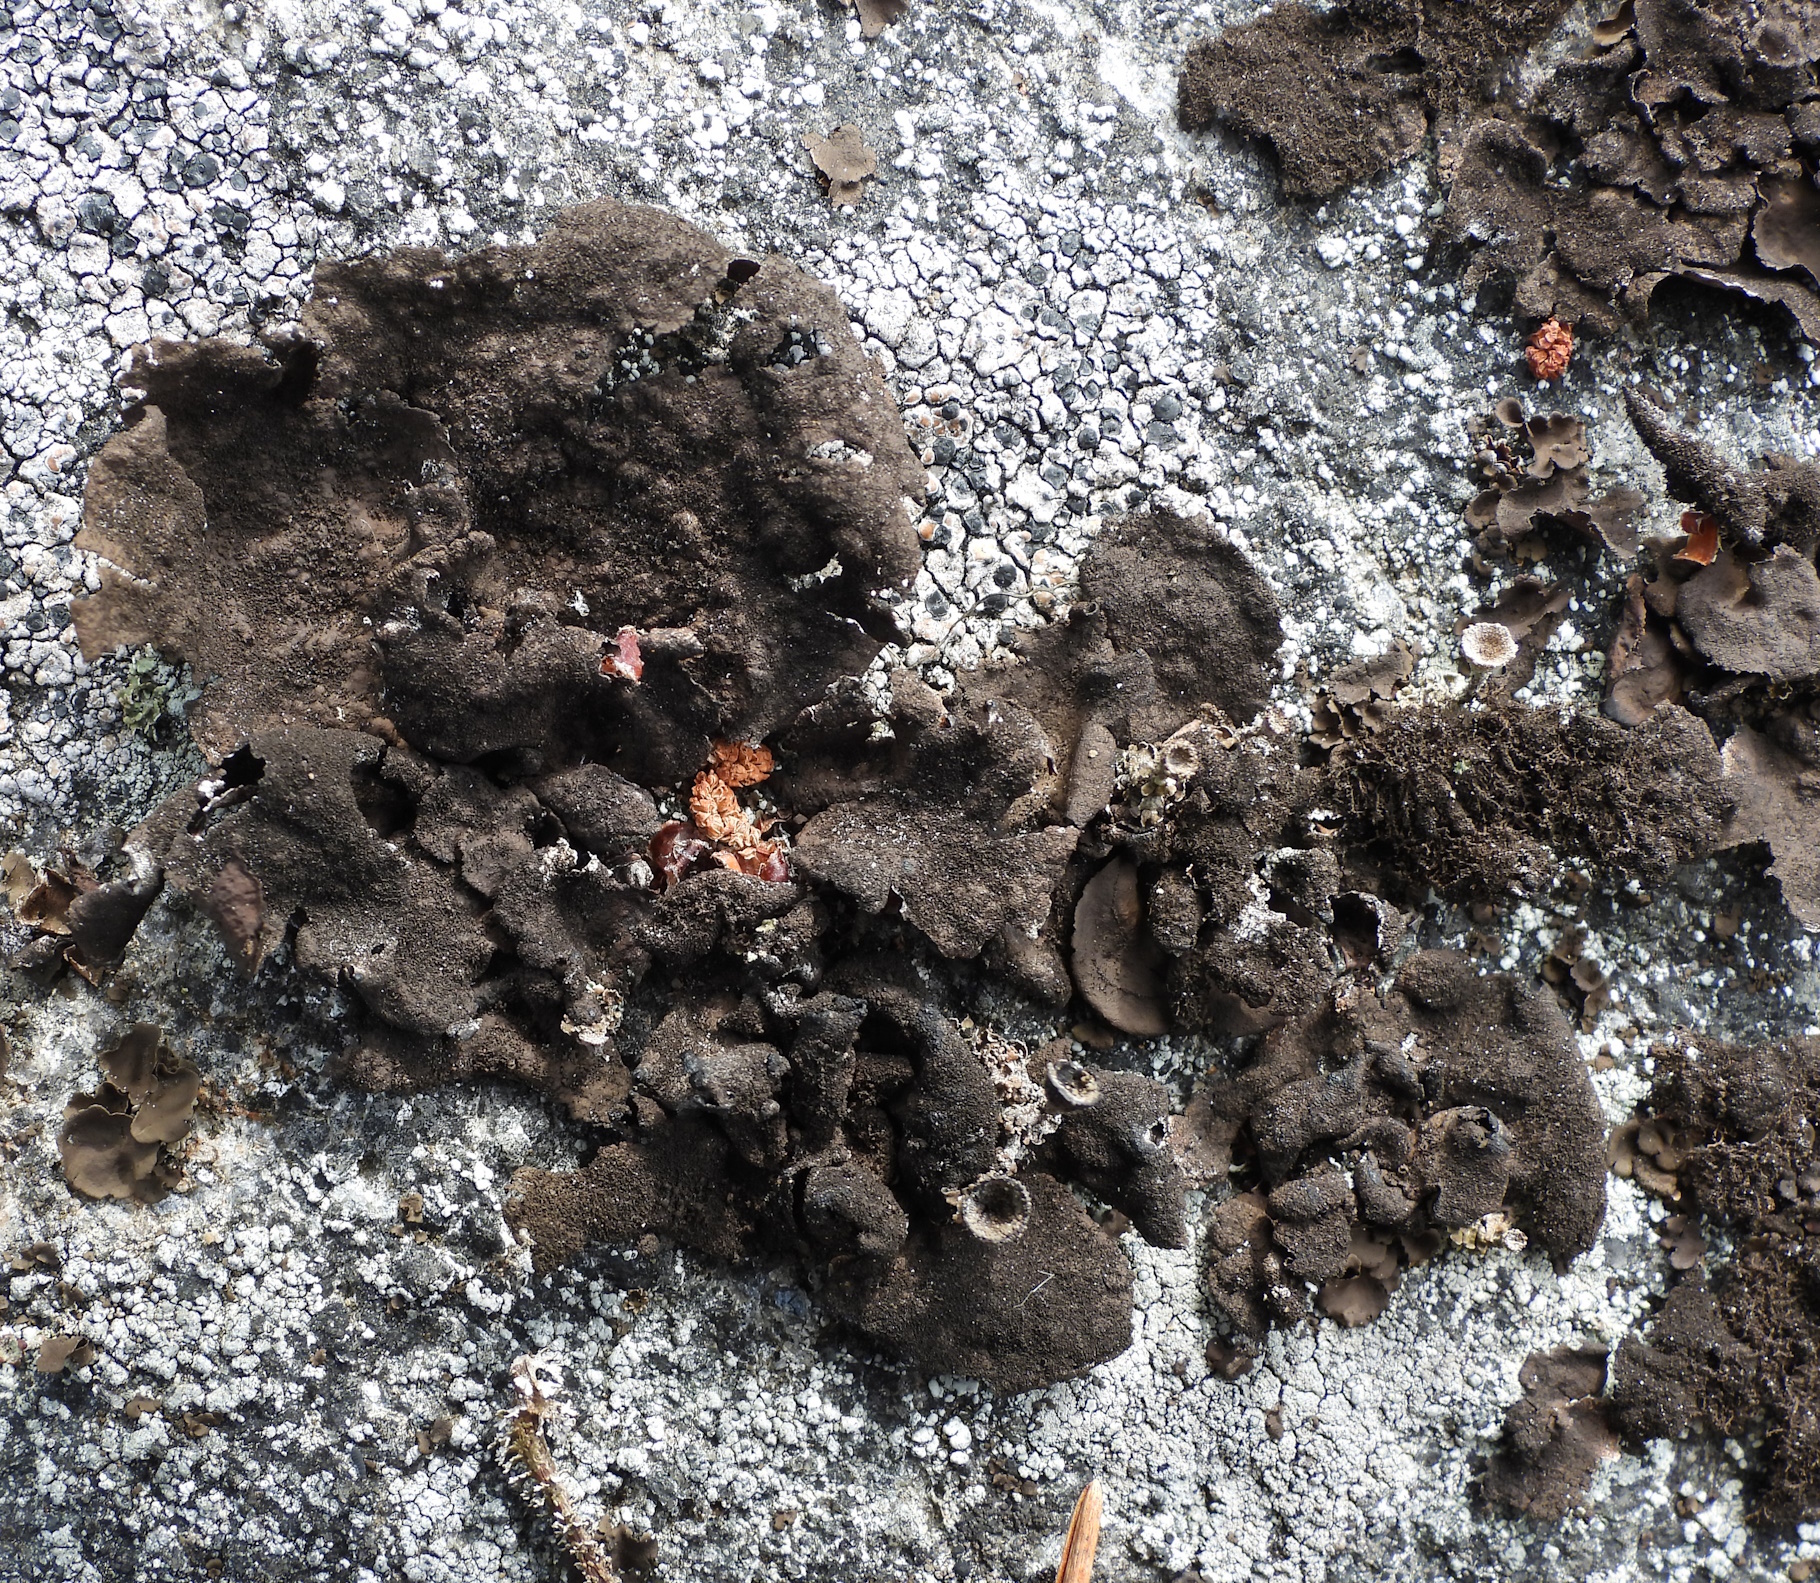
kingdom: Fungi
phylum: Ascomycota
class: Lecanoromycetes
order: Umbilicariales
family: Umbilicariaceae
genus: Umbilicaria
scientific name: Umbilicaria deusta
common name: Peppered rock tripe
